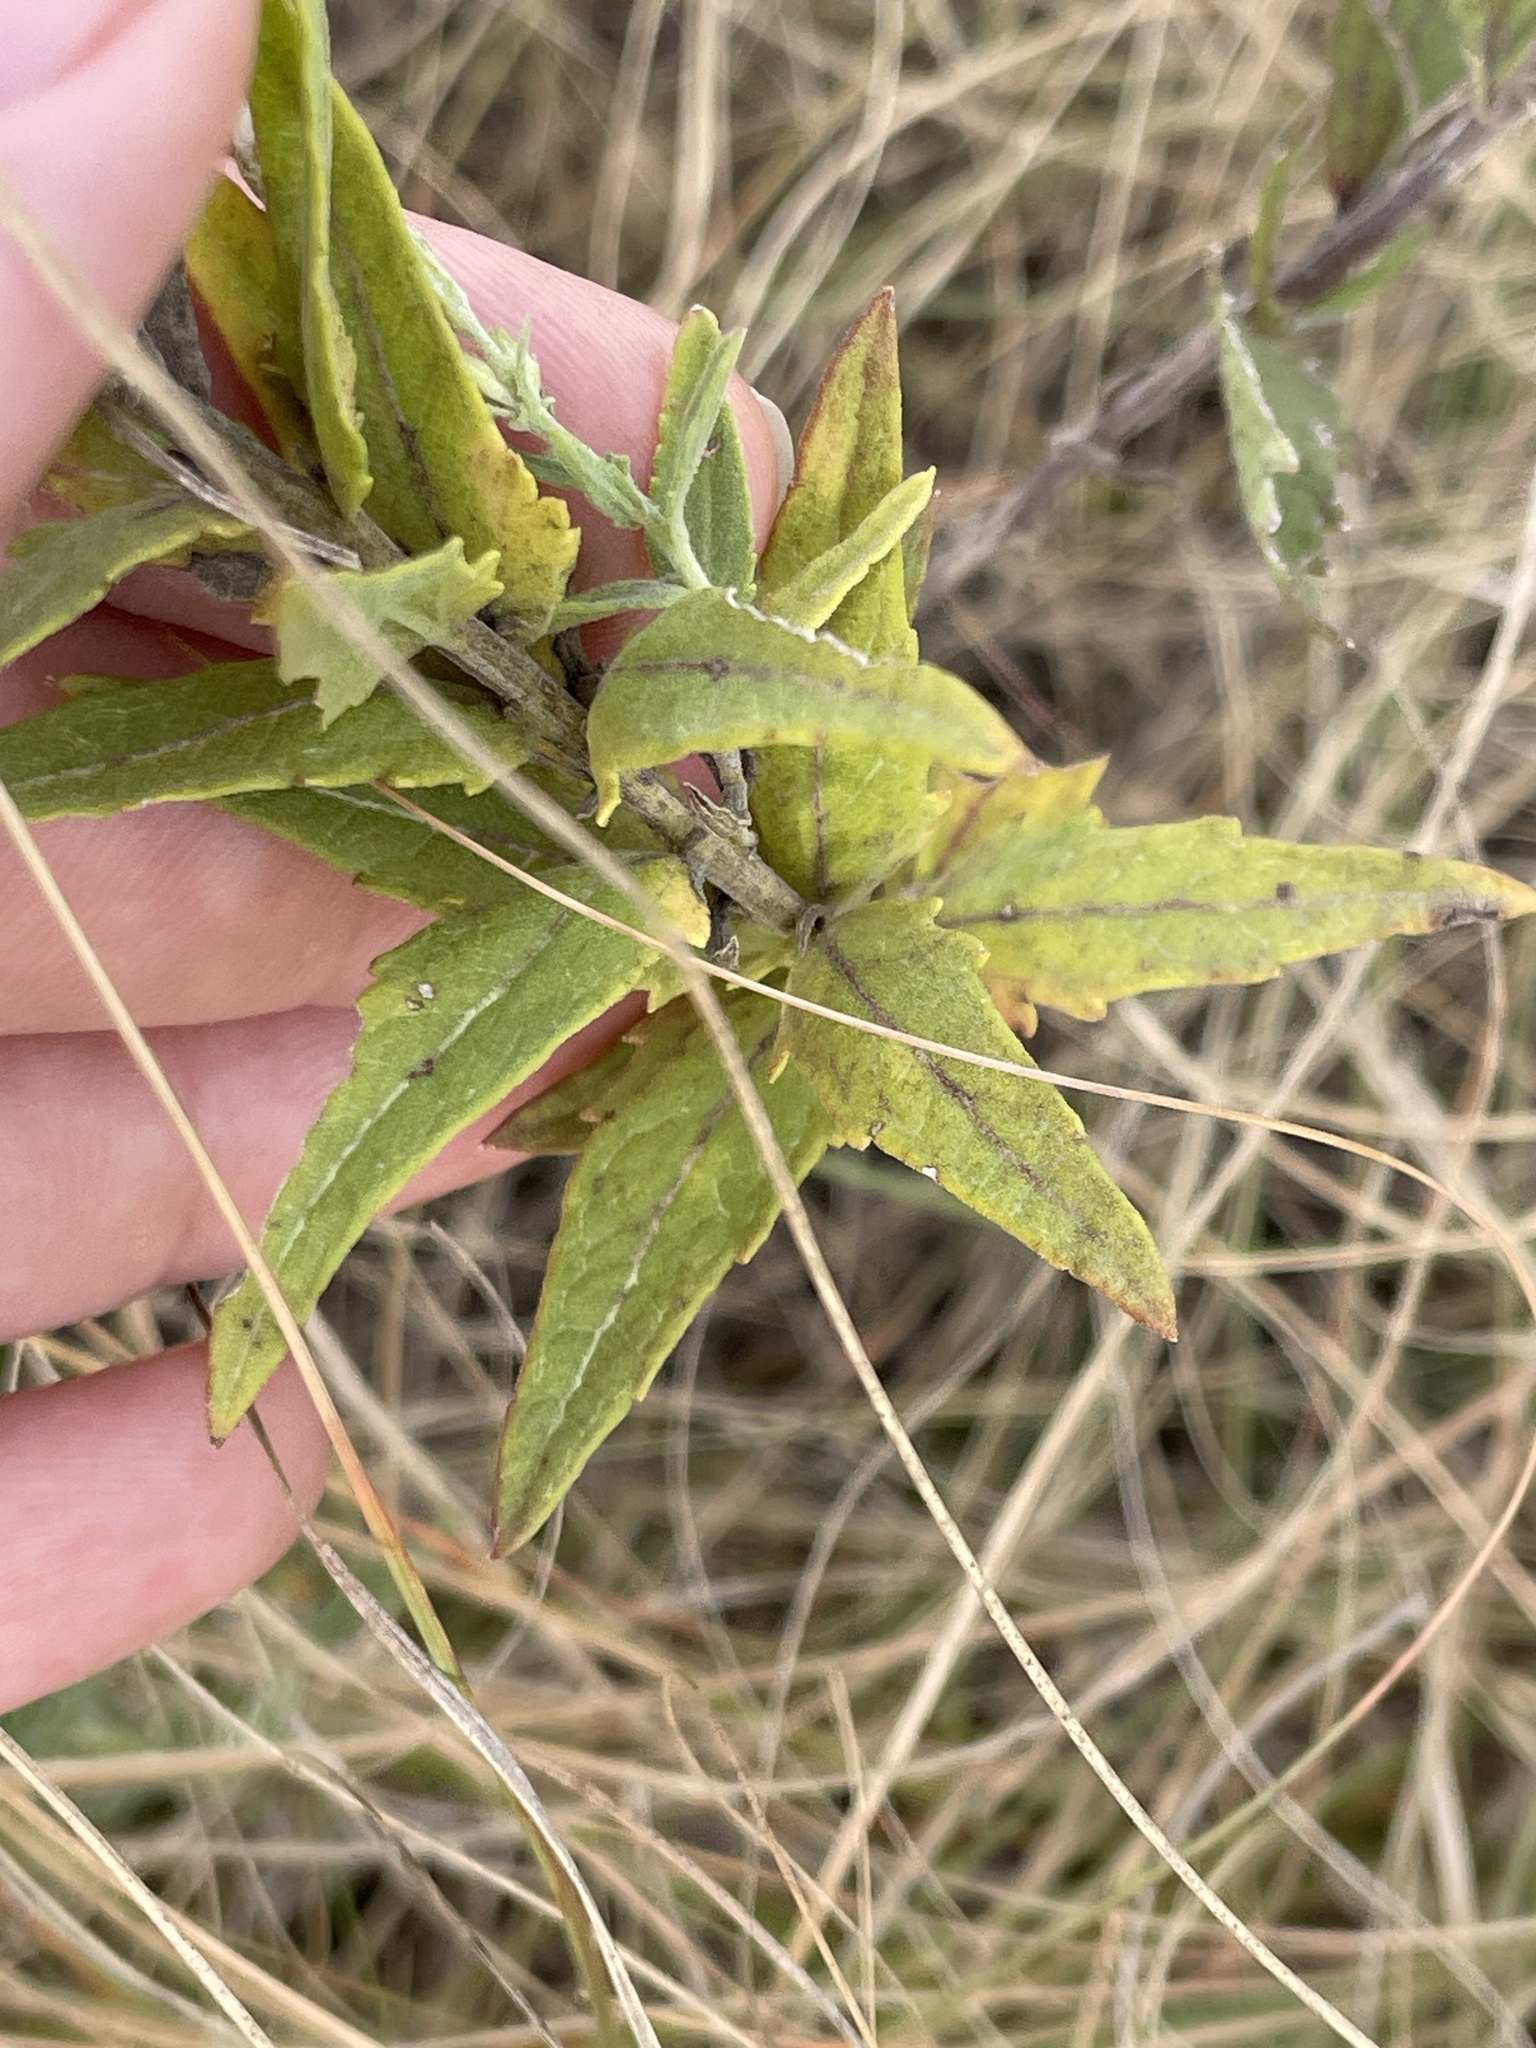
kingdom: Plantae
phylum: Tracheophyta
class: Magnoliopsida
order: Asterales
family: Asteraceae
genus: Brickellia
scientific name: Brickellia eupatorioides
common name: False boneset
